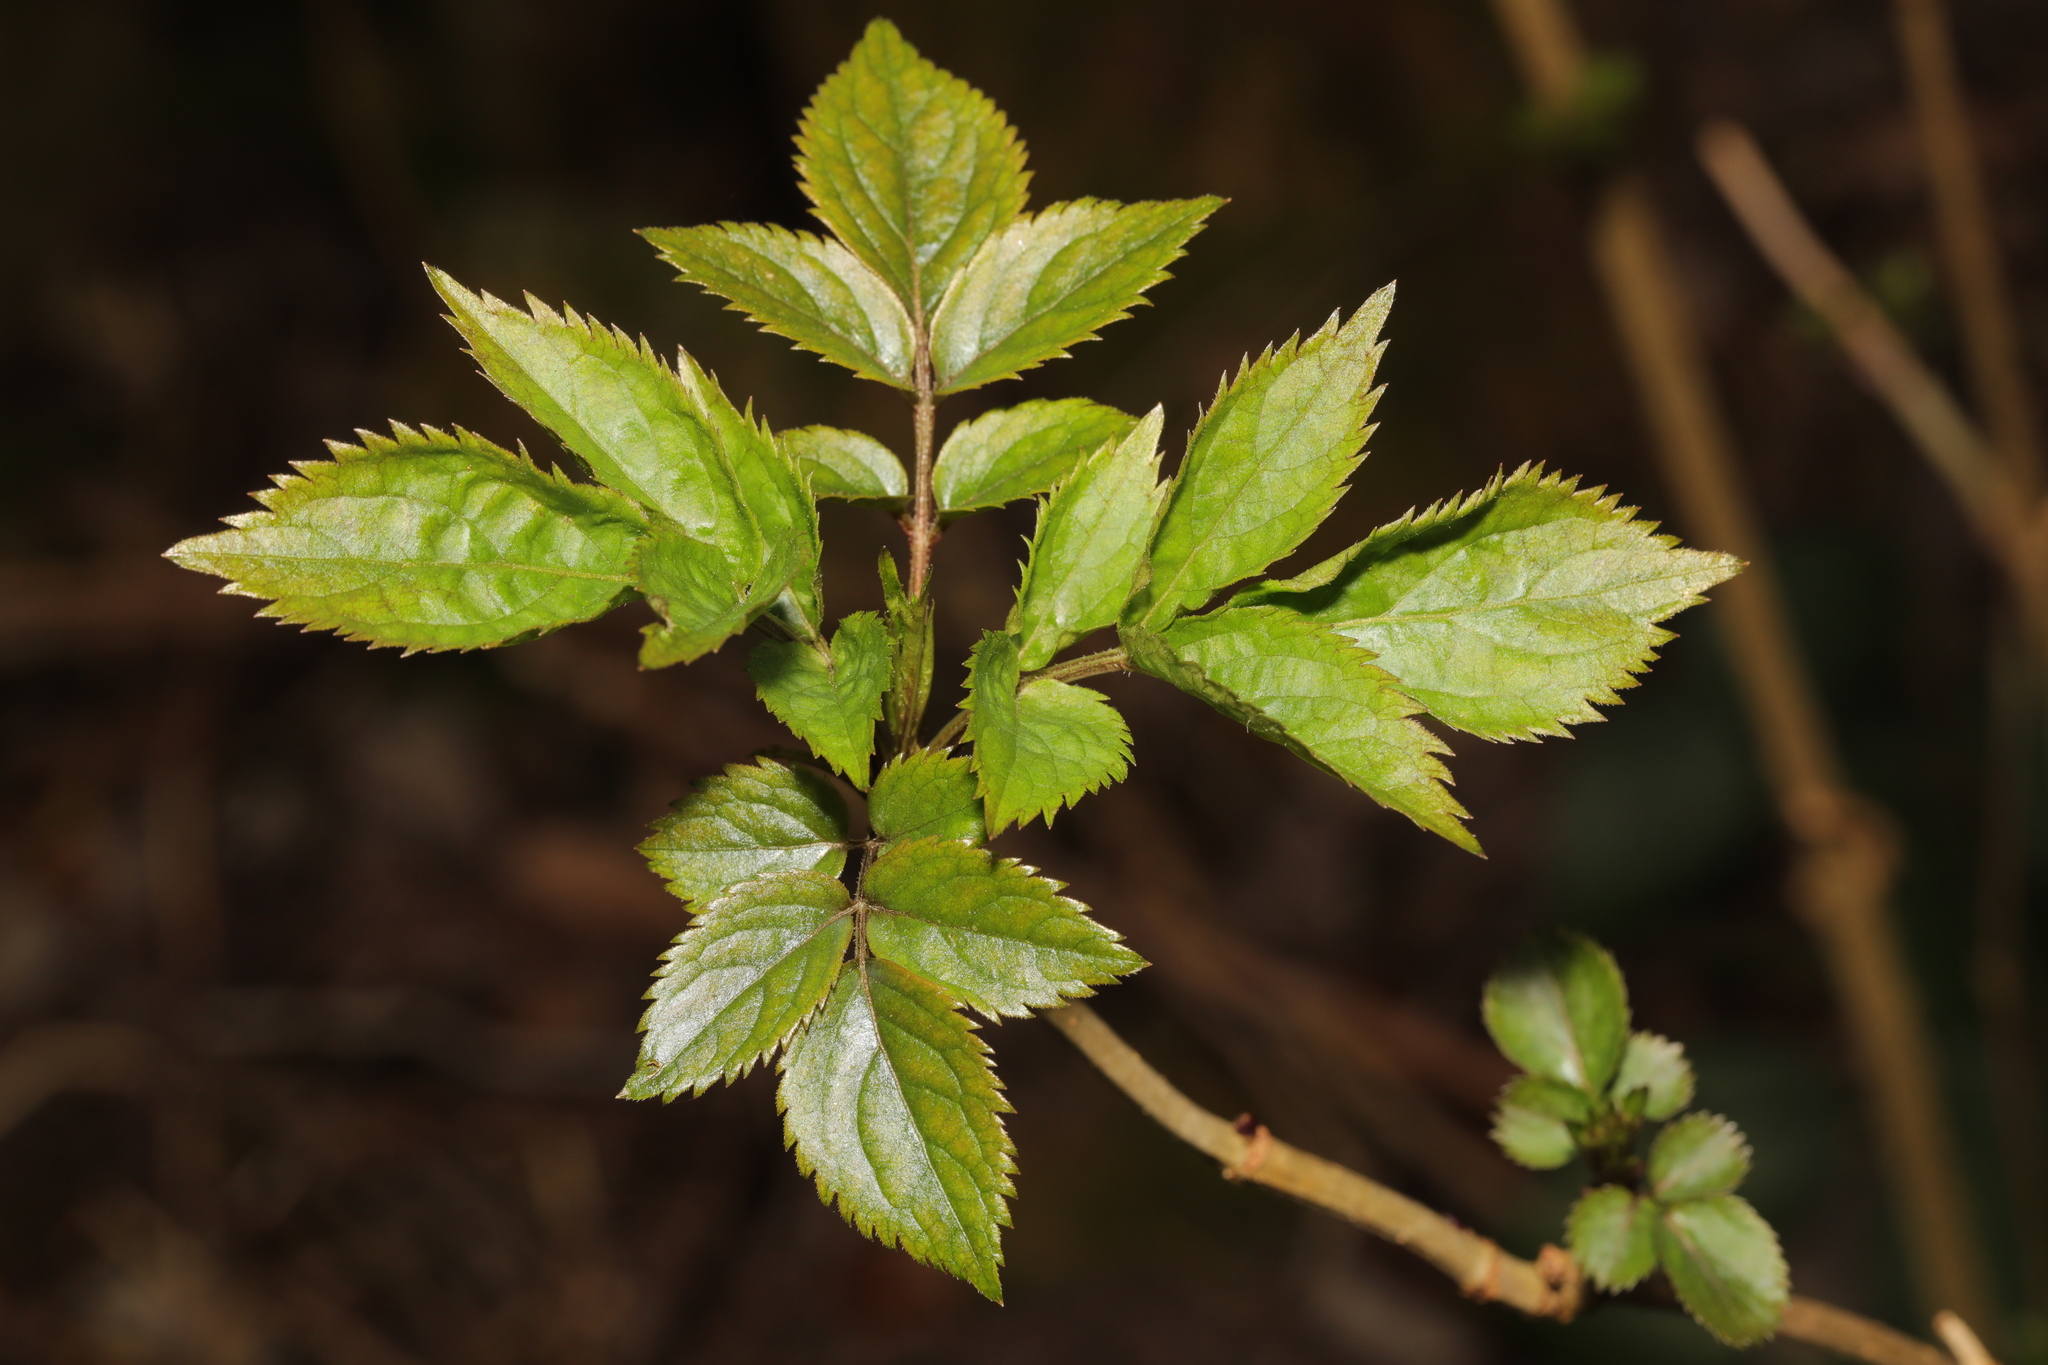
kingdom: Plantae
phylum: Tracheophyta
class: Magnoliopsida
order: Dipsacales
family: Viburnaceae
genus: Sambucus
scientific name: Sambucus nigra
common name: Elder
